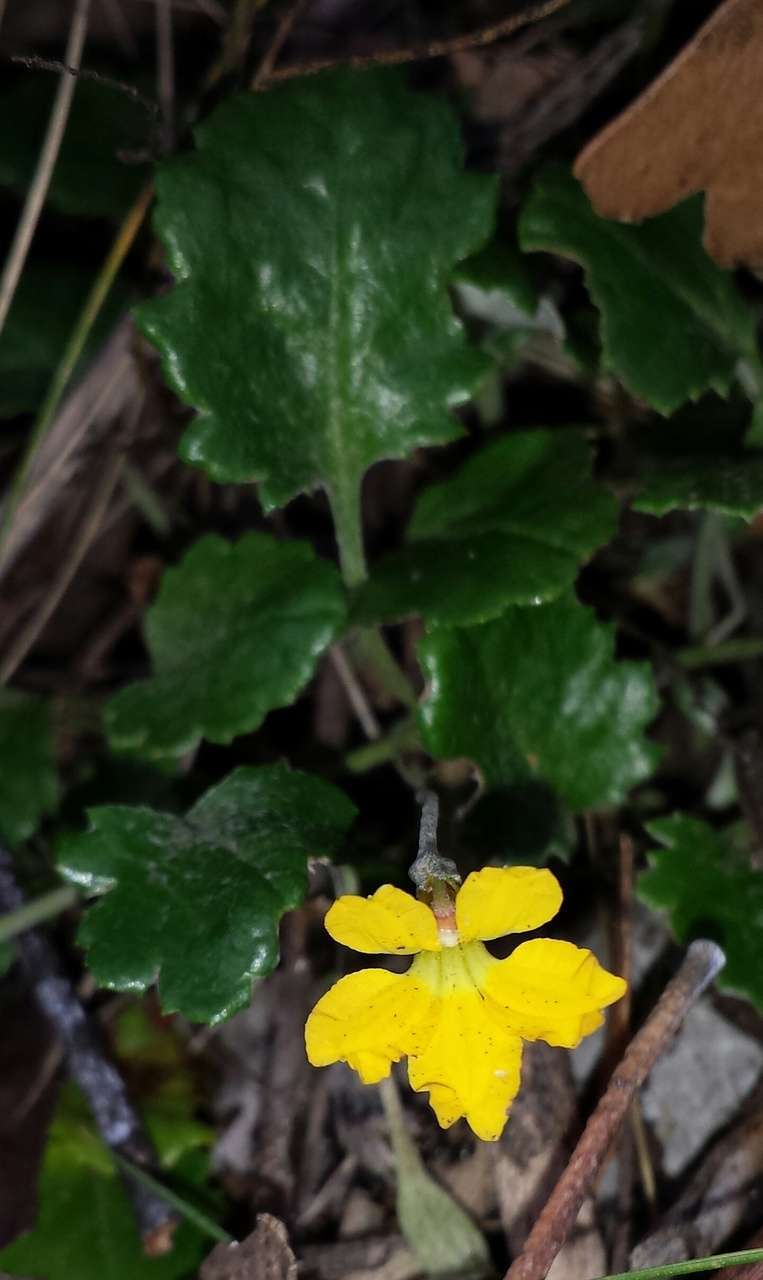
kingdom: Plantae
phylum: Tracheophyta
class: Magnoliopsida
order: Asterales
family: Goodeniaceae
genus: Goodenia
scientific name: Goodenia hederacea
